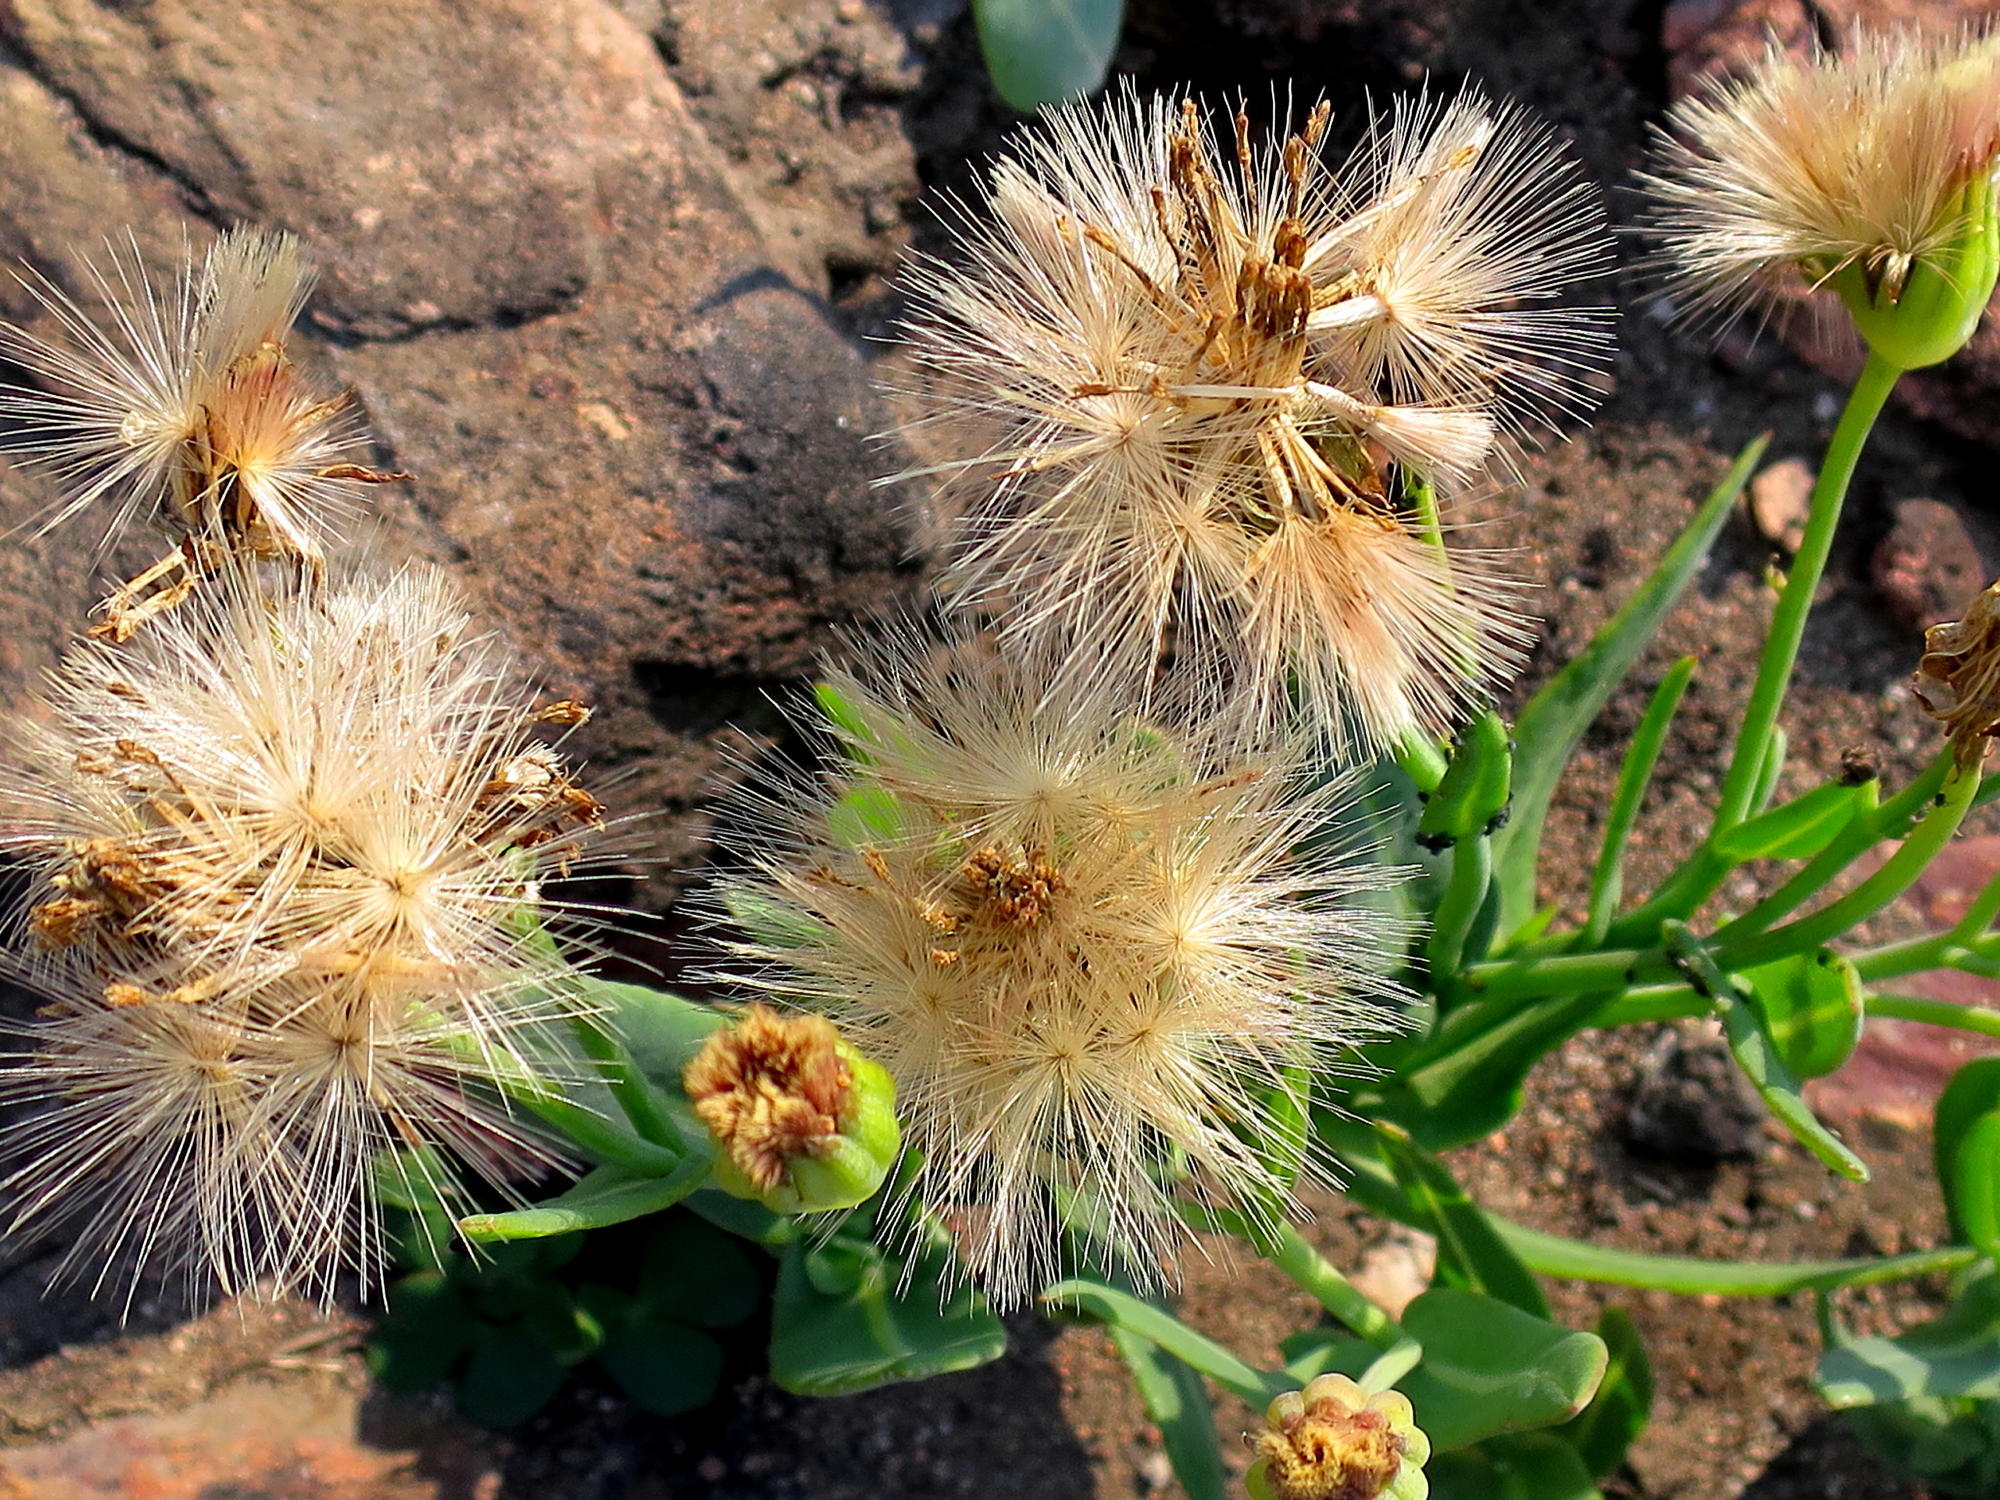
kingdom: Plantae
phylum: Tracheophyta
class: Magnoliopsida
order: Asterales
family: Asteraceae
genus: Othonna
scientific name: Othonna gymnodiscus
